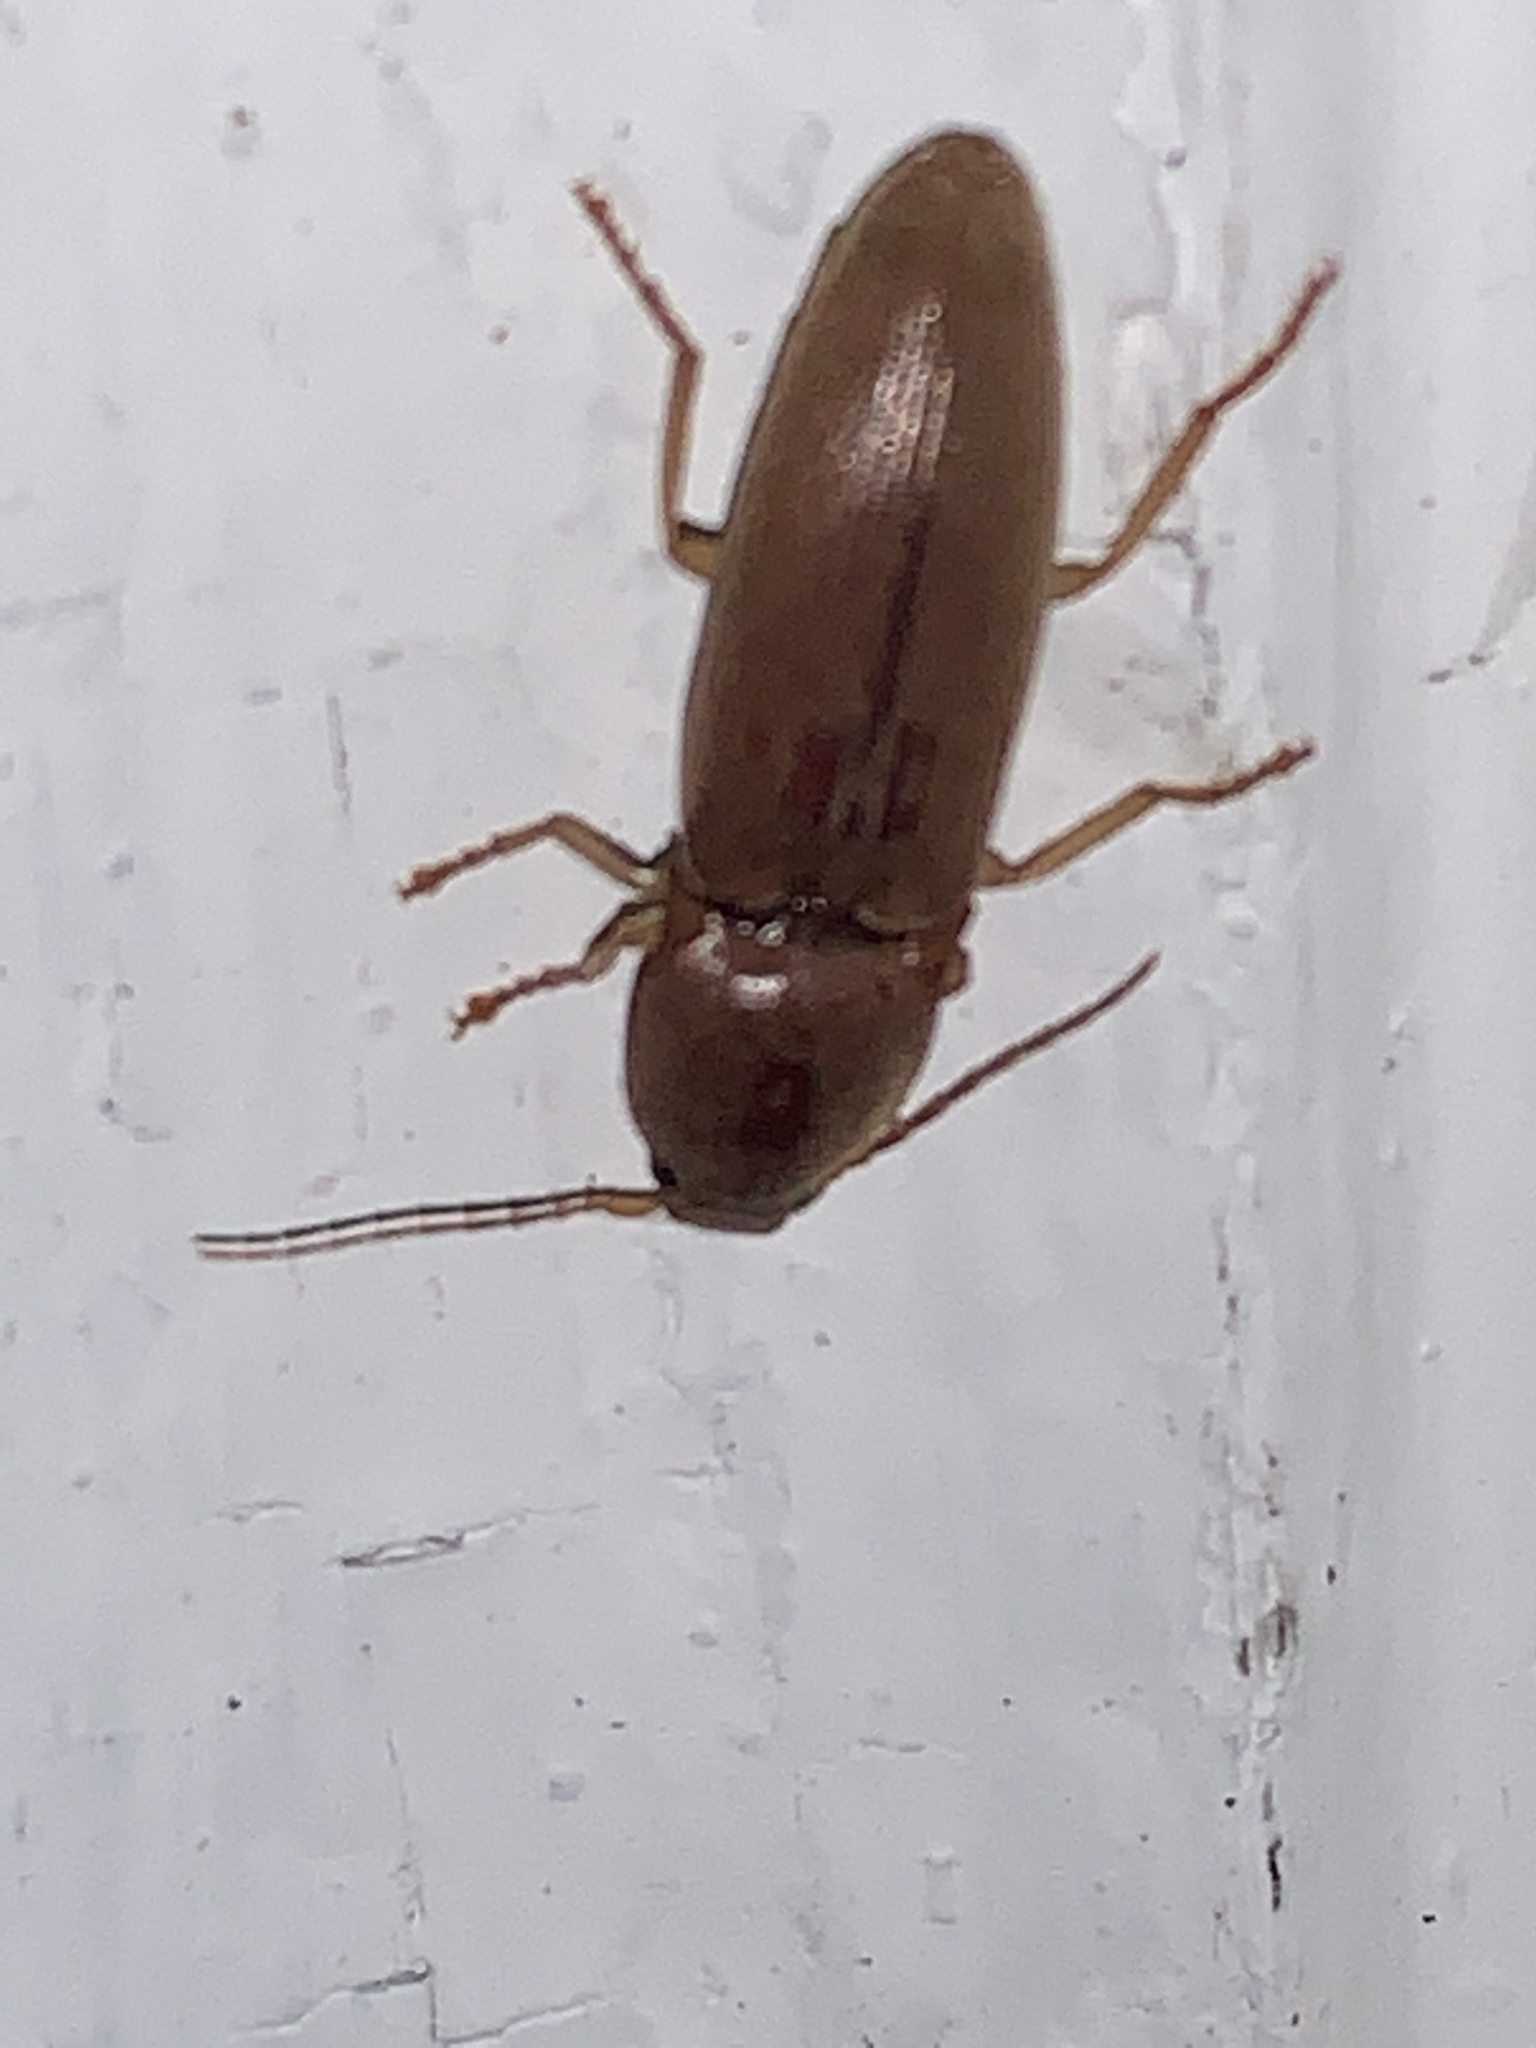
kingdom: Animalia
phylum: Arthropoda
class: Insecta
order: Coleoptera
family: Elateridae
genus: Monocrepidius
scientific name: Monocrepidius lividus
